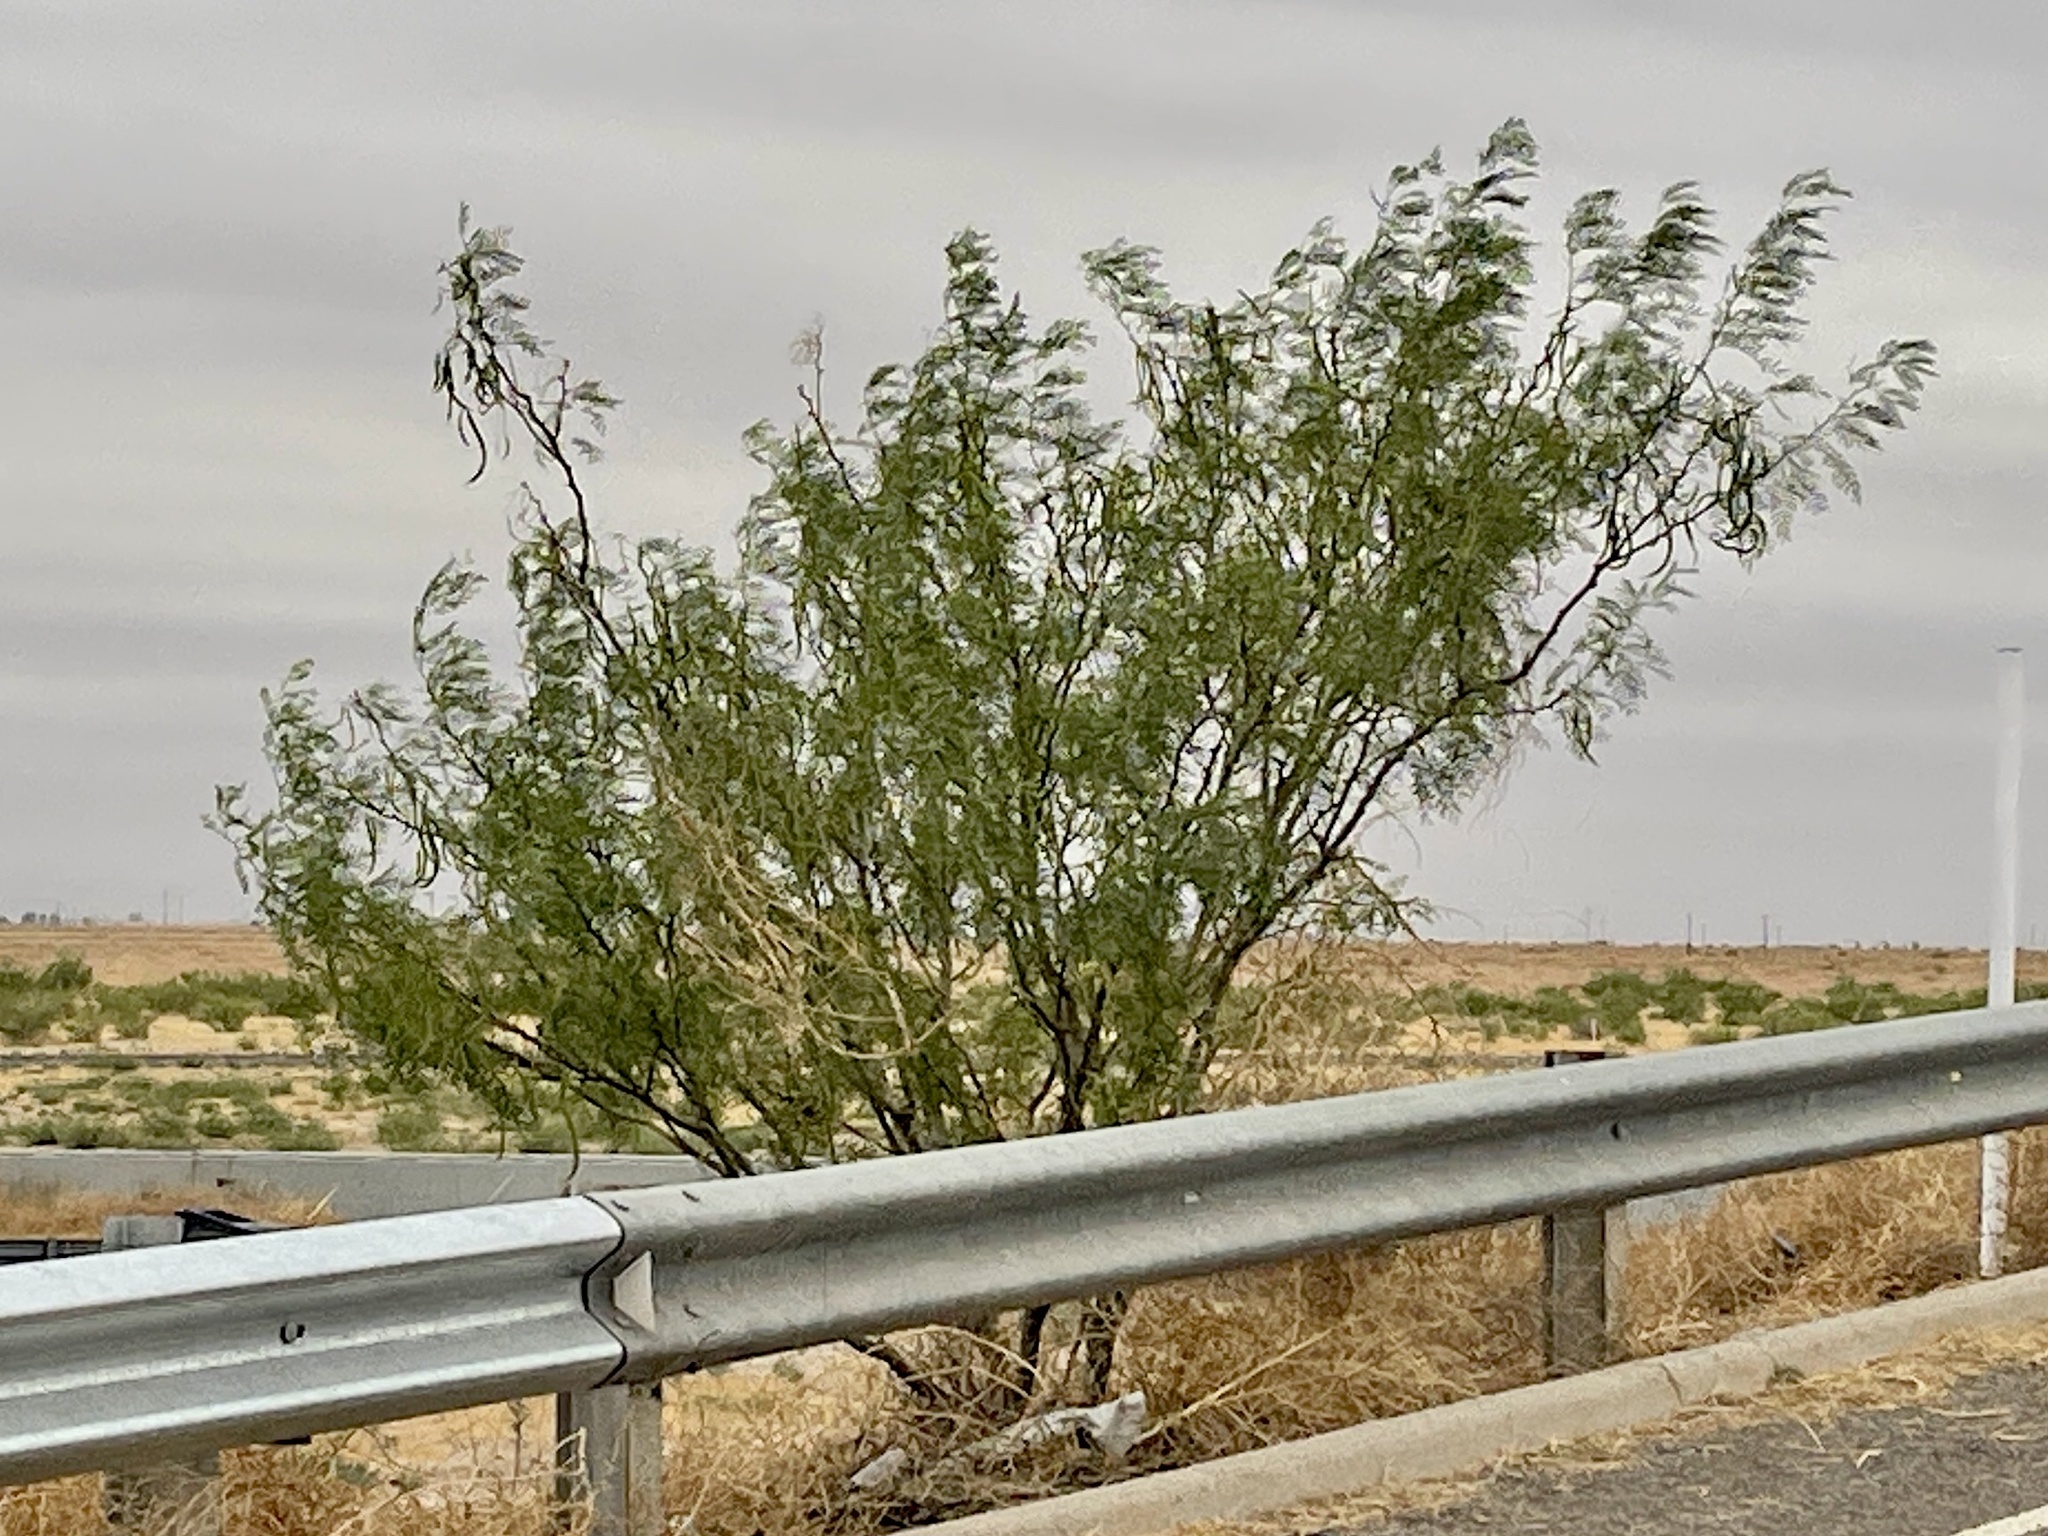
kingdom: Plantae
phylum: Tracheophyta
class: Magnoliopsida
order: Fabales
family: Fabaceae
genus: Prosopis
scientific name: Prosopis glandulosa
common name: Honey mesquite
